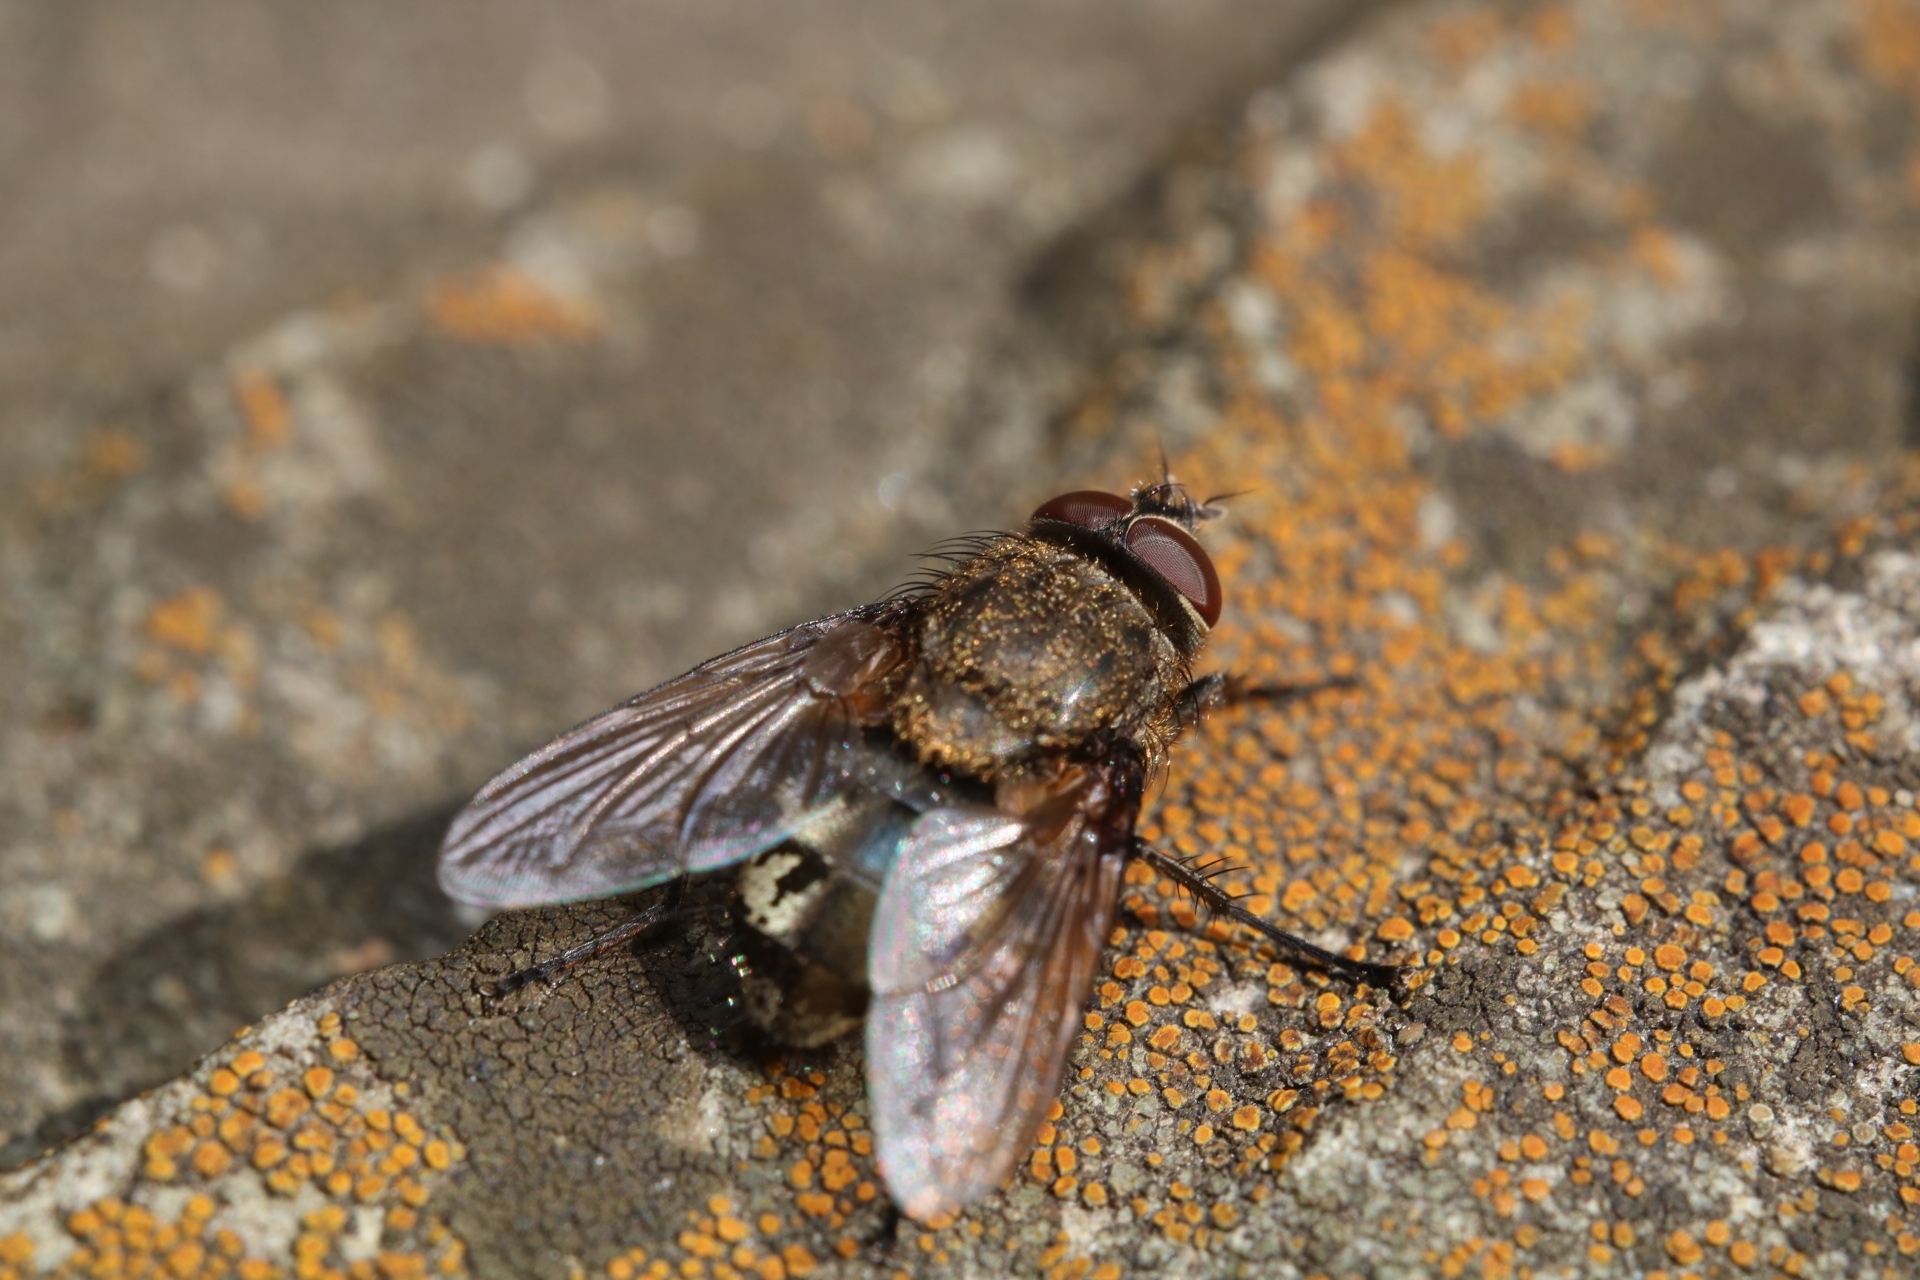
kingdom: Animalia
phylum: Arthropoda
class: Insecta
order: Diptera
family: Polleniidae
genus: Pollenia
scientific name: Pollenia
